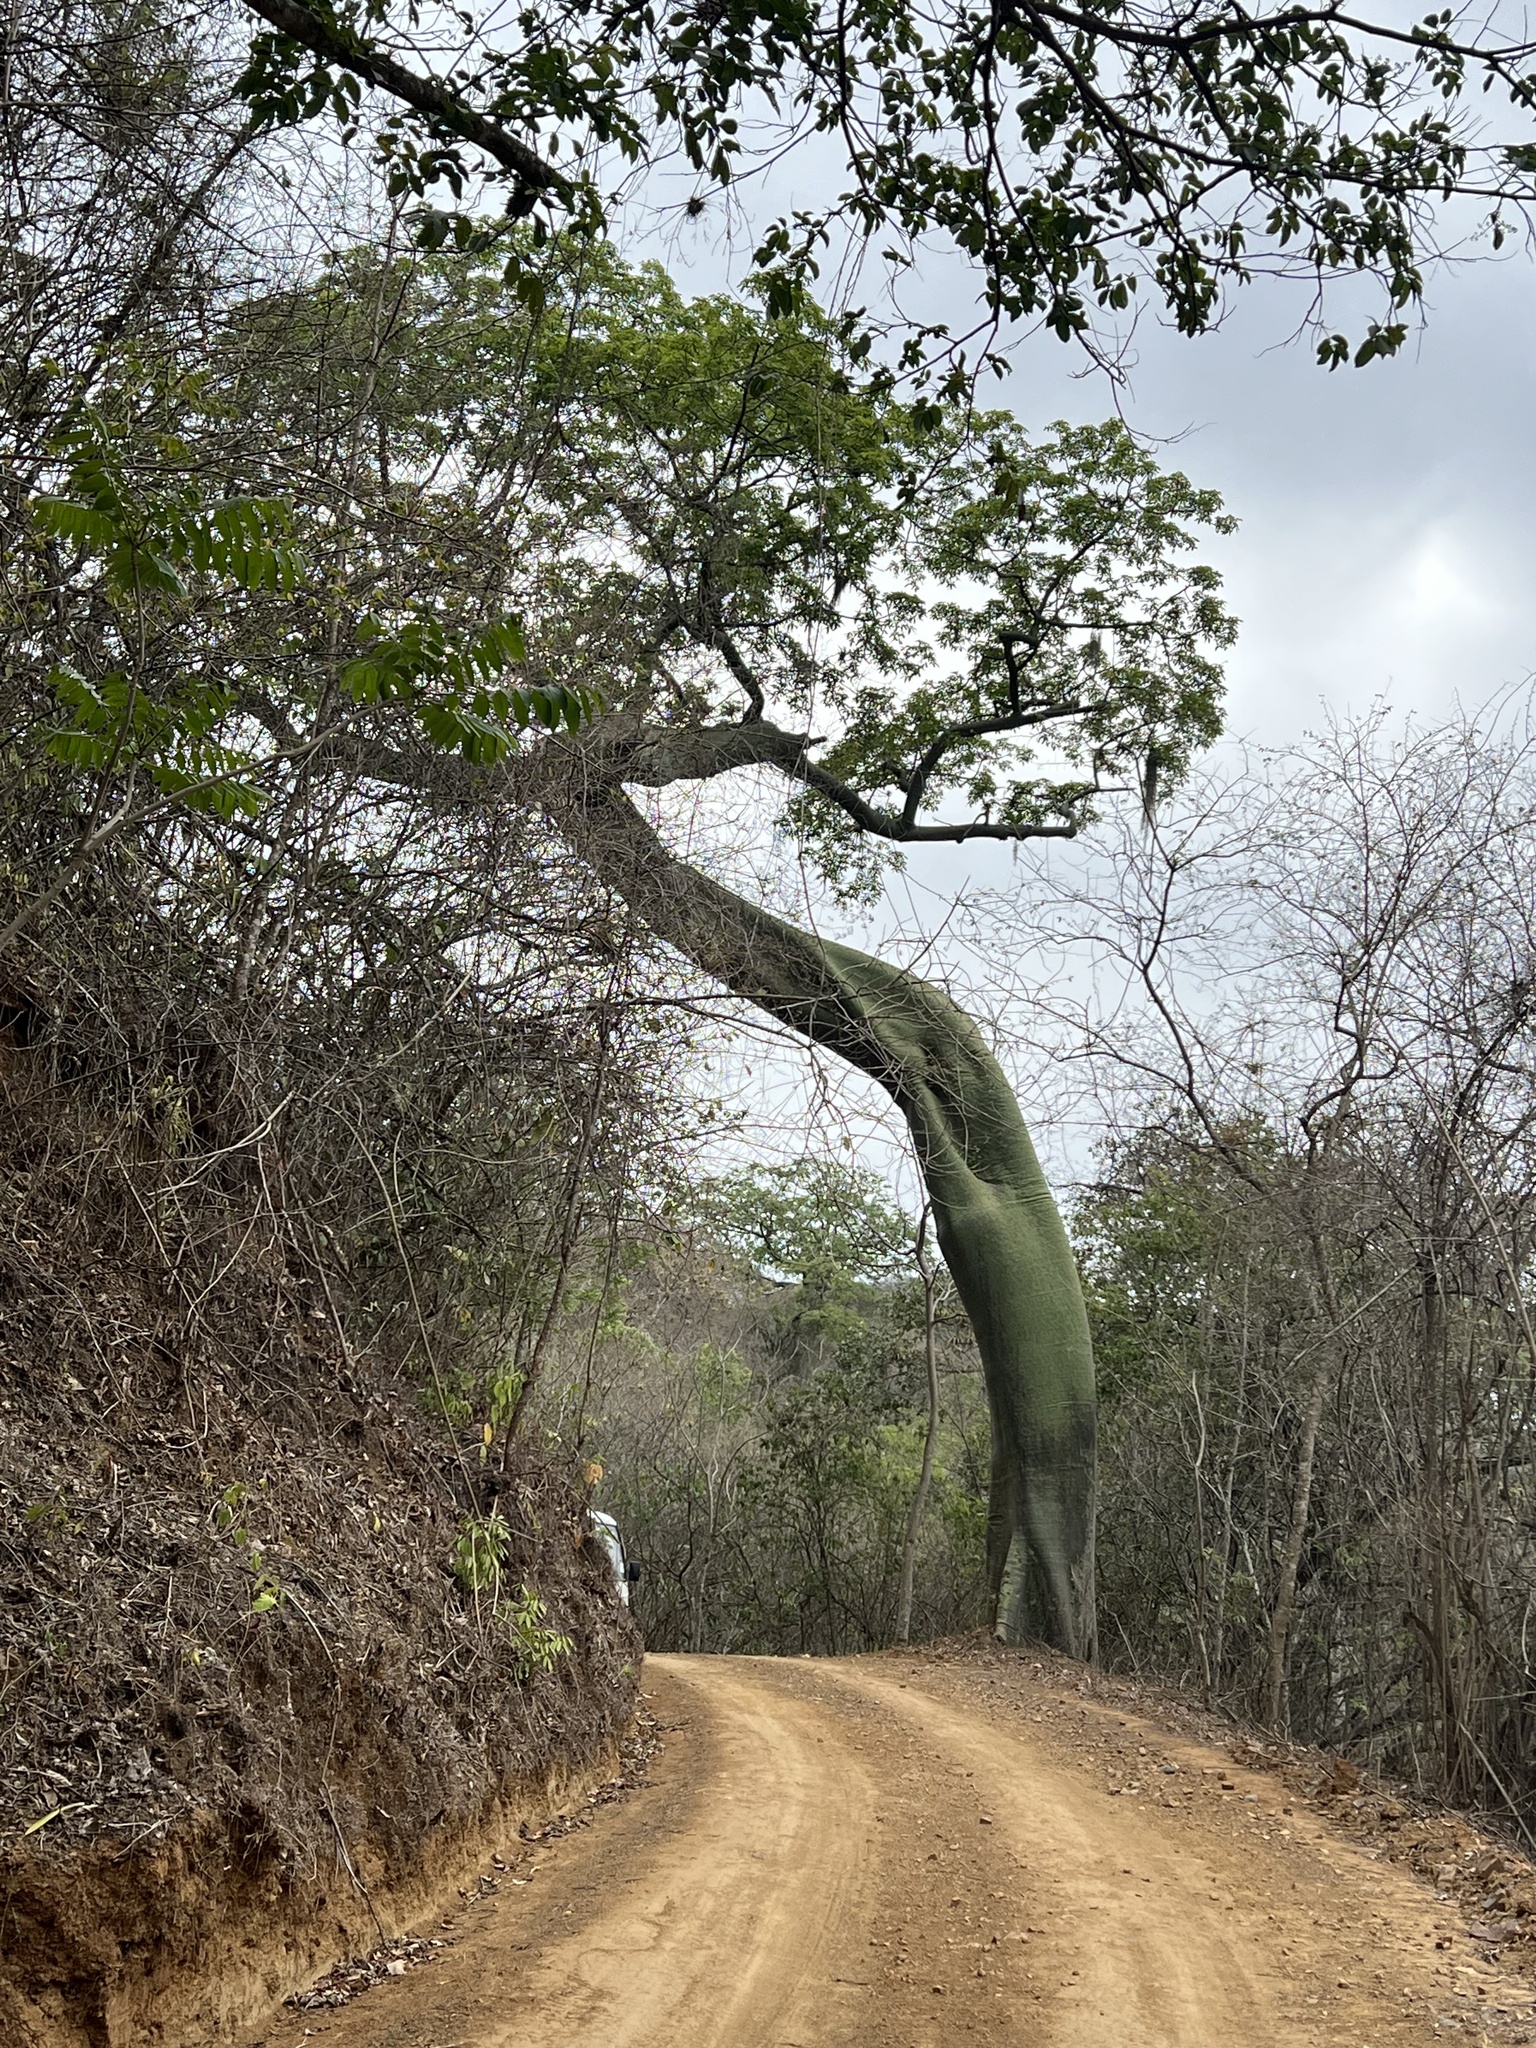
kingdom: Plantae
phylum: Tracheophyta
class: Magnoliopsida
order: Malvales
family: Malvaceae
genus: Ceiba
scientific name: Ceiba trischistandra
